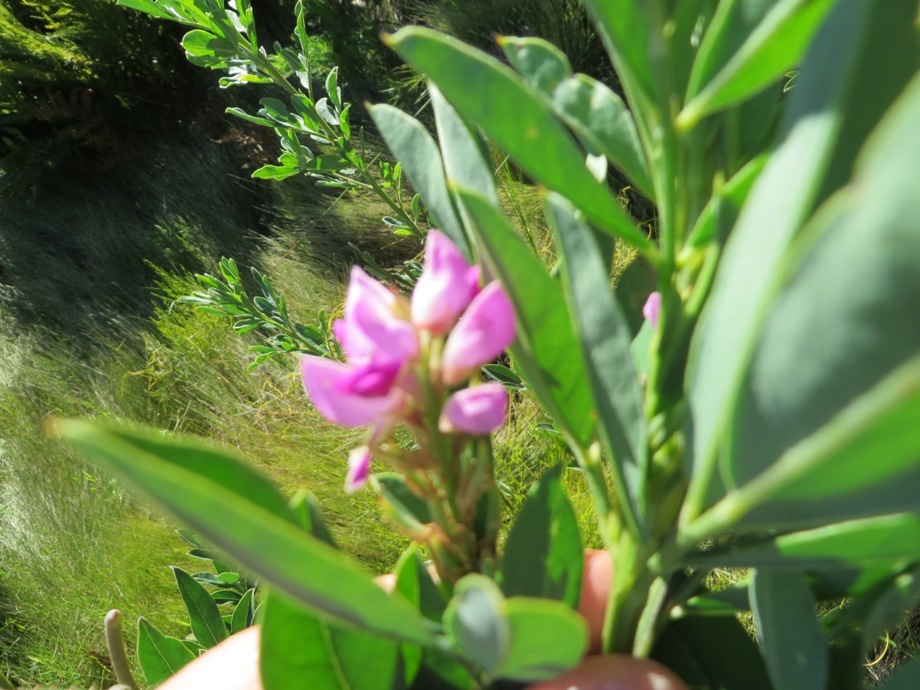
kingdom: Plantae
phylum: Tracheophyta
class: Magnoliopsida
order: Fabales
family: Fabaceae
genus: Indigofera
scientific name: Indigofera cytisoides
